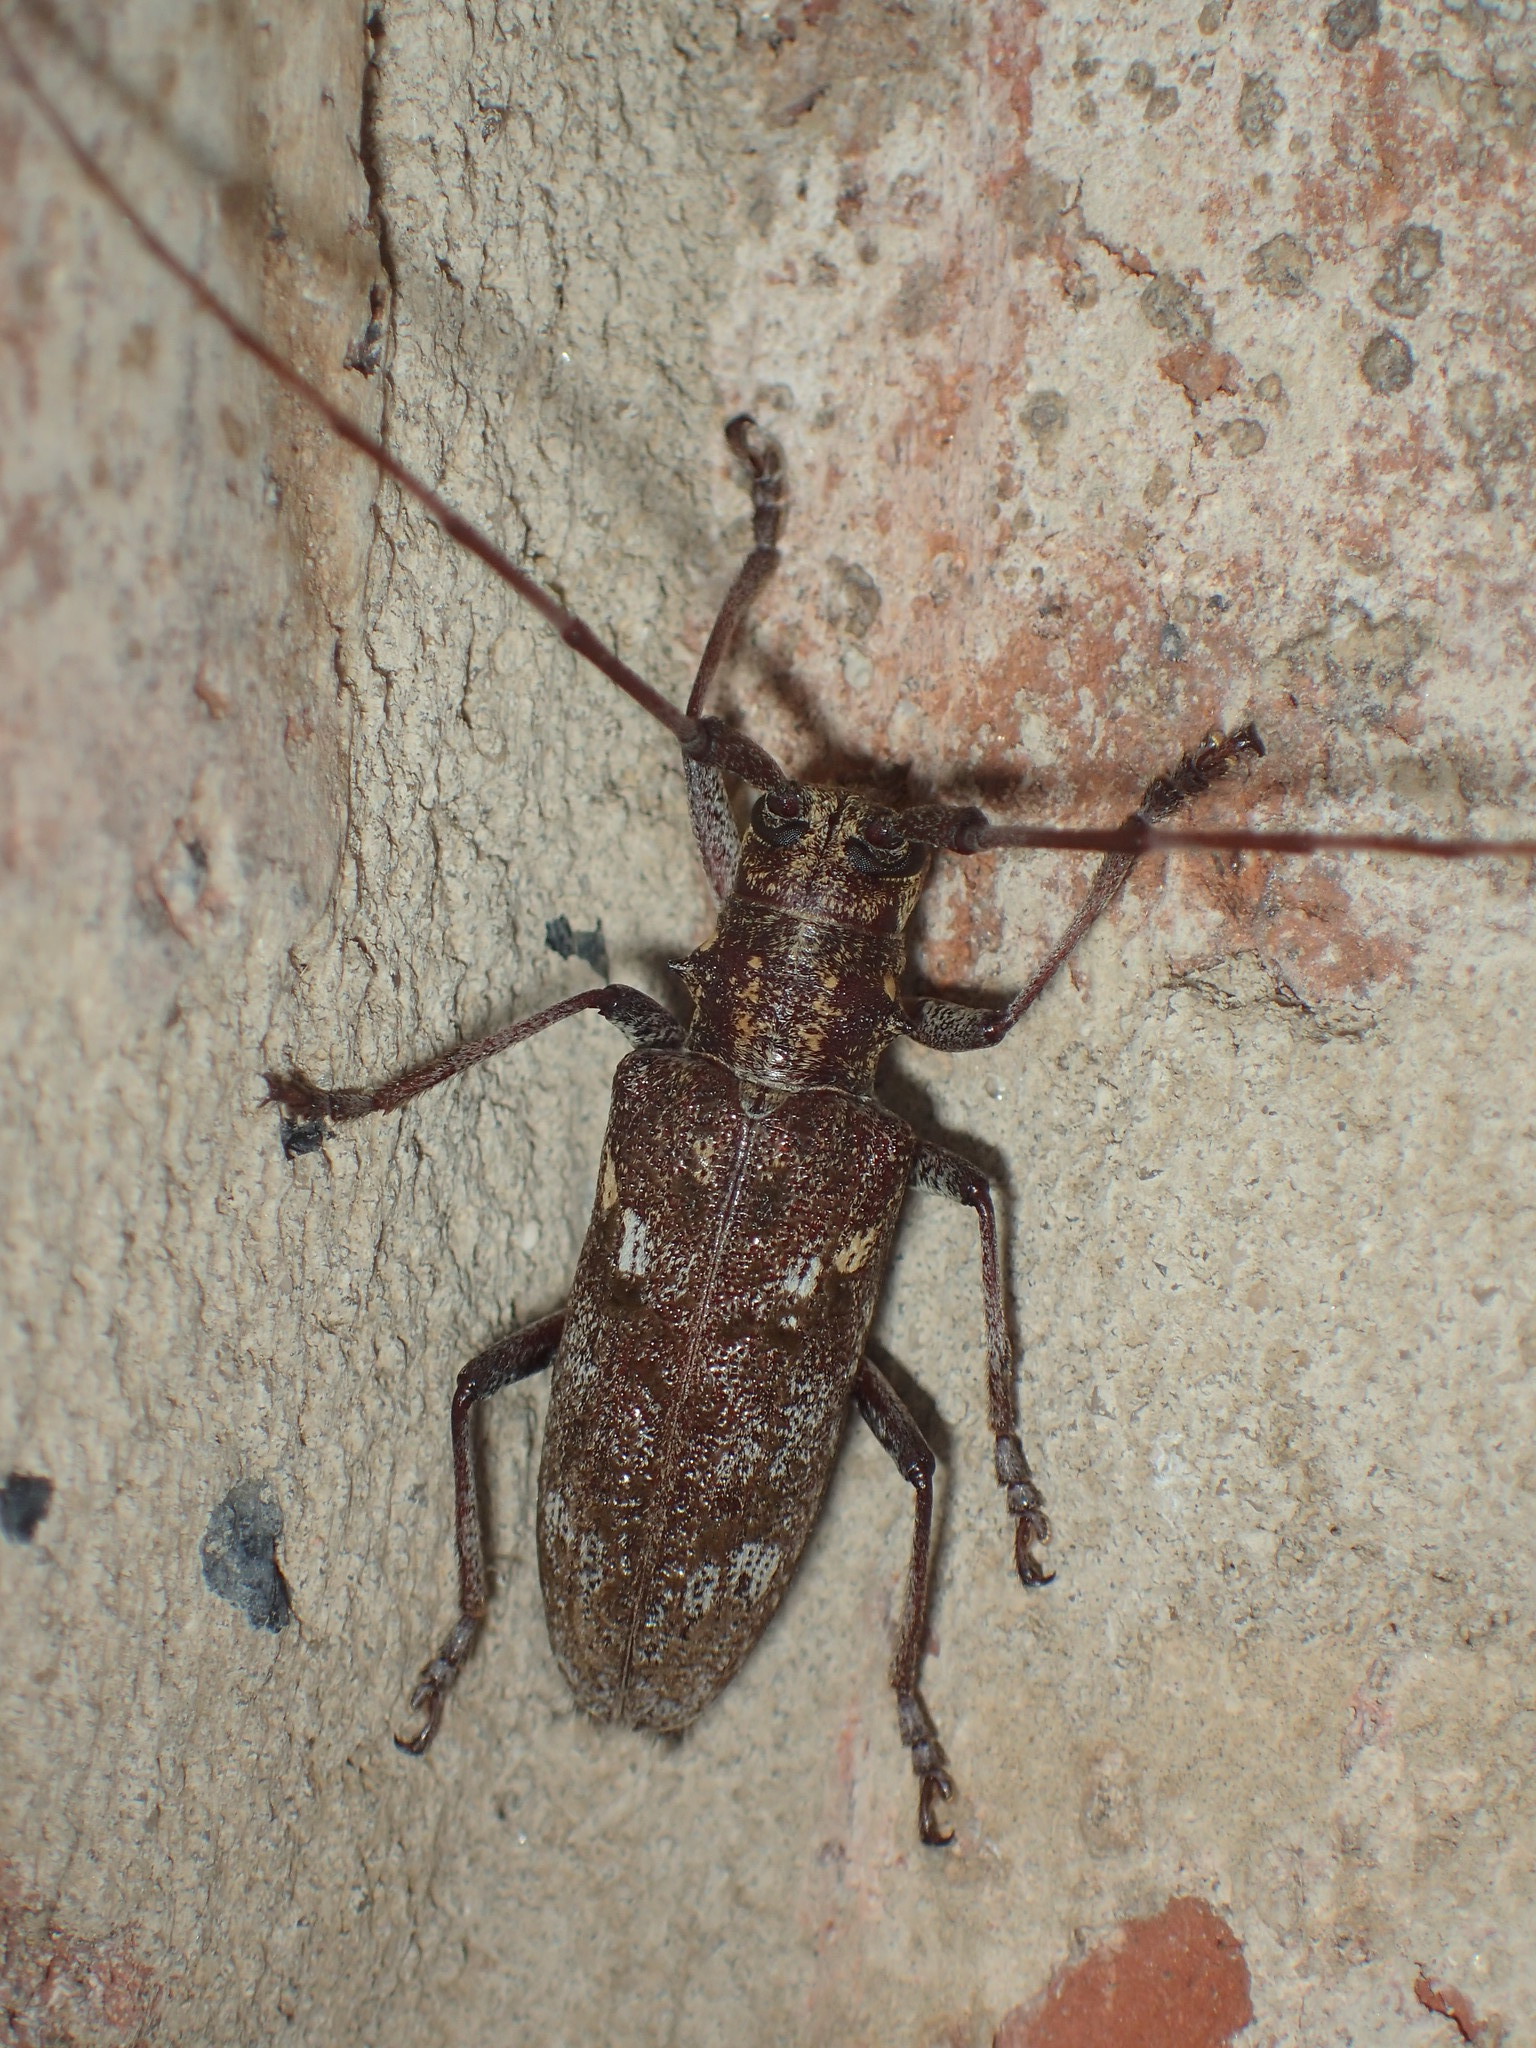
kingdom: Animalia
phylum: Arthropoda
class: Insecta
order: Coleoptera
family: Cerambycidae
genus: Monochamus
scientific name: Monochamus carolinensis
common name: Carolina pine sawyer
